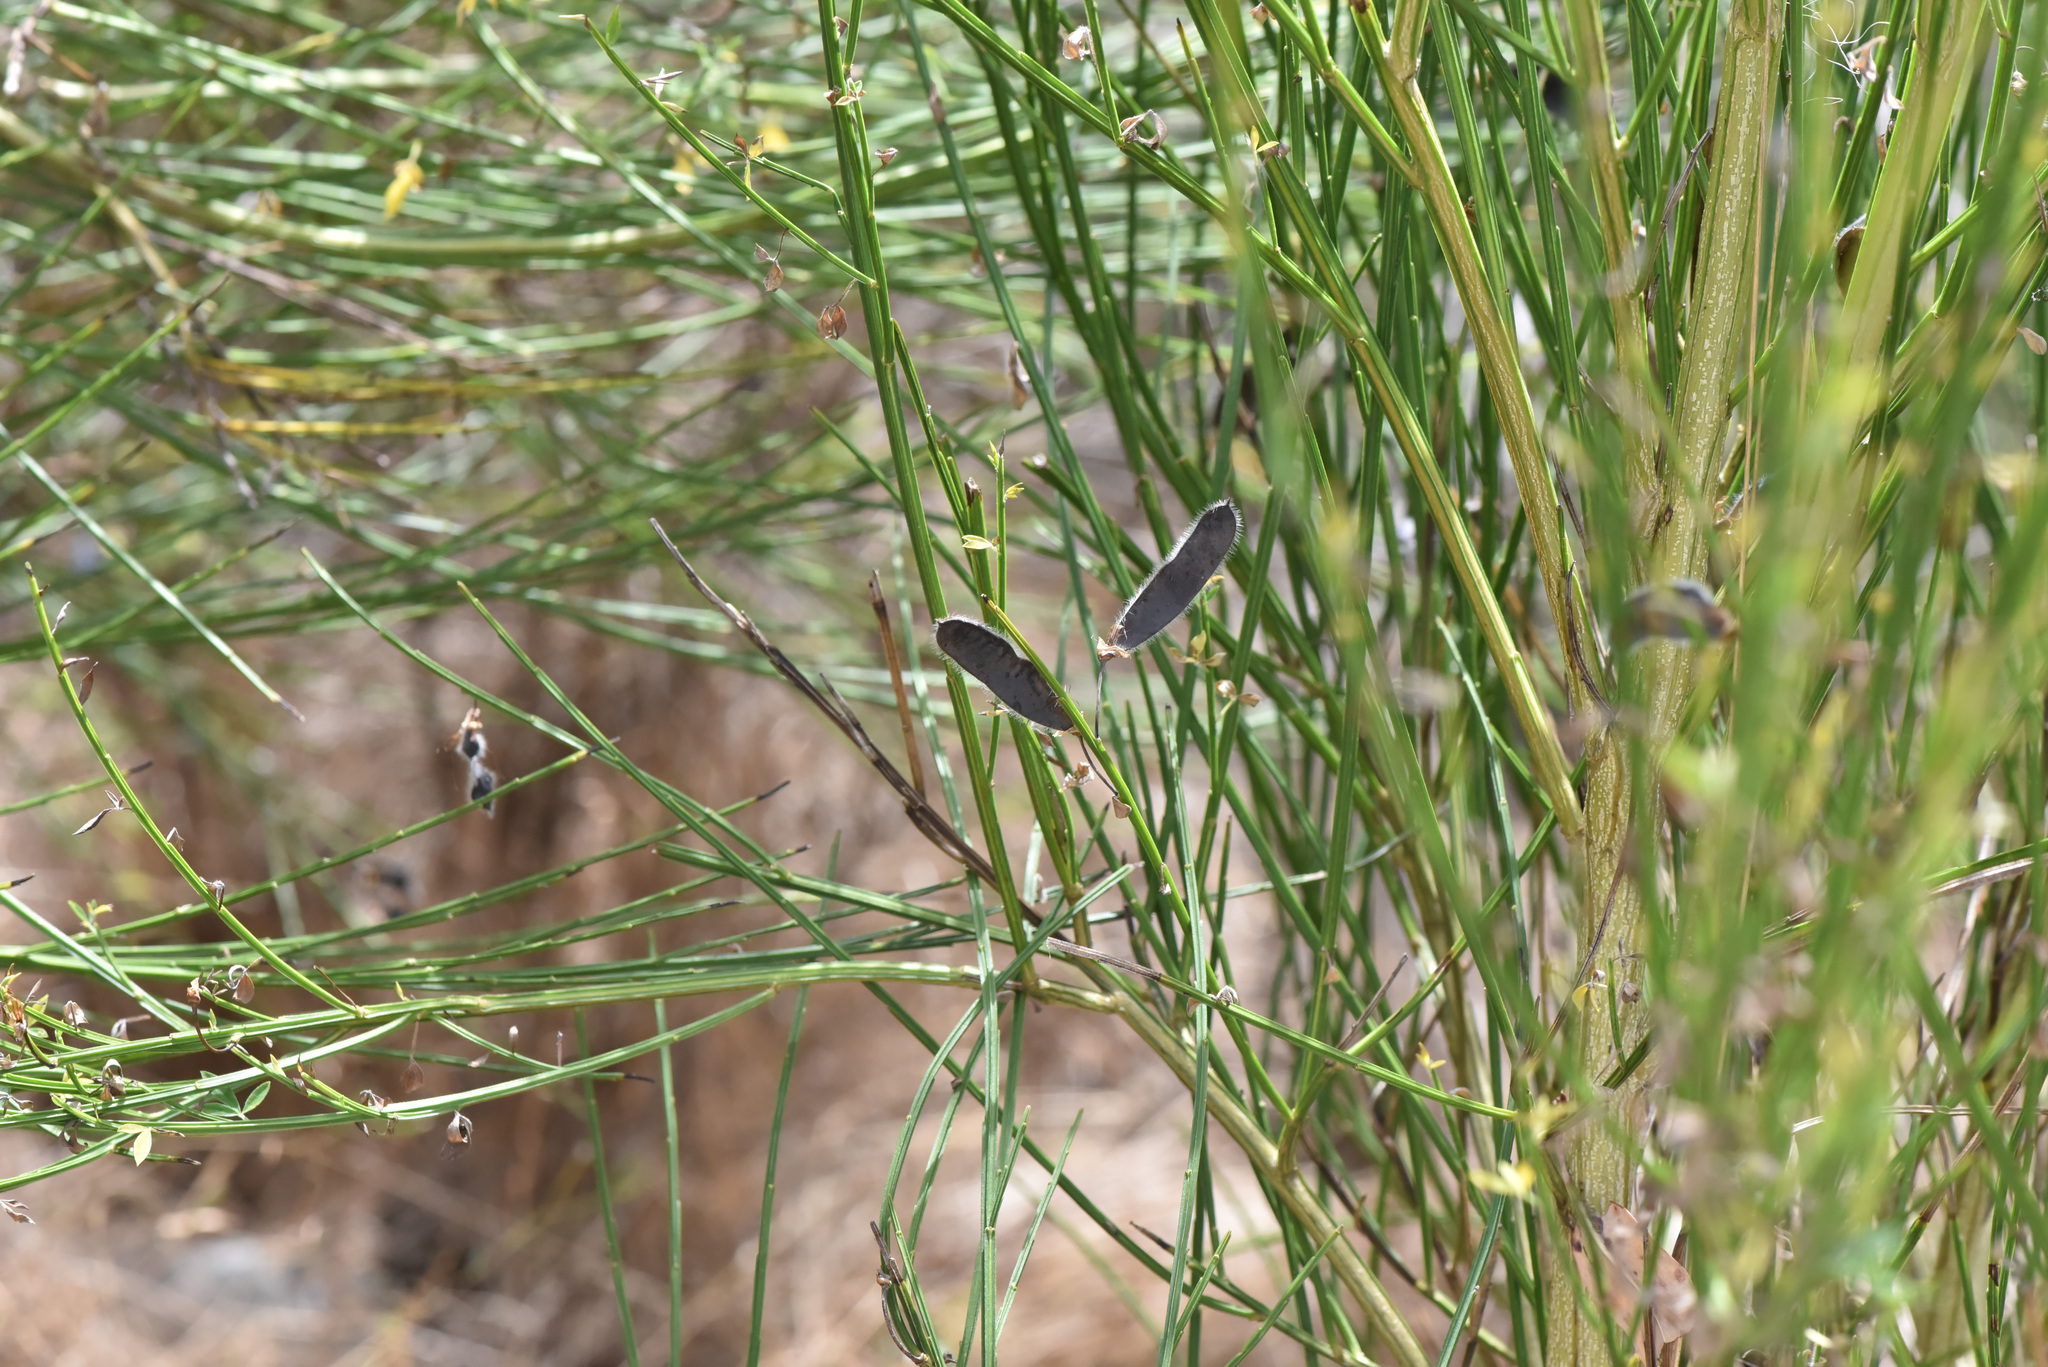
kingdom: Plantae
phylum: Tracheophyta
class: Magnoliopsida
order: Fabales
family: Fabaceae
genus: Cytisus
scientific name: Cytisus scoparius
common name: Scotch broom
